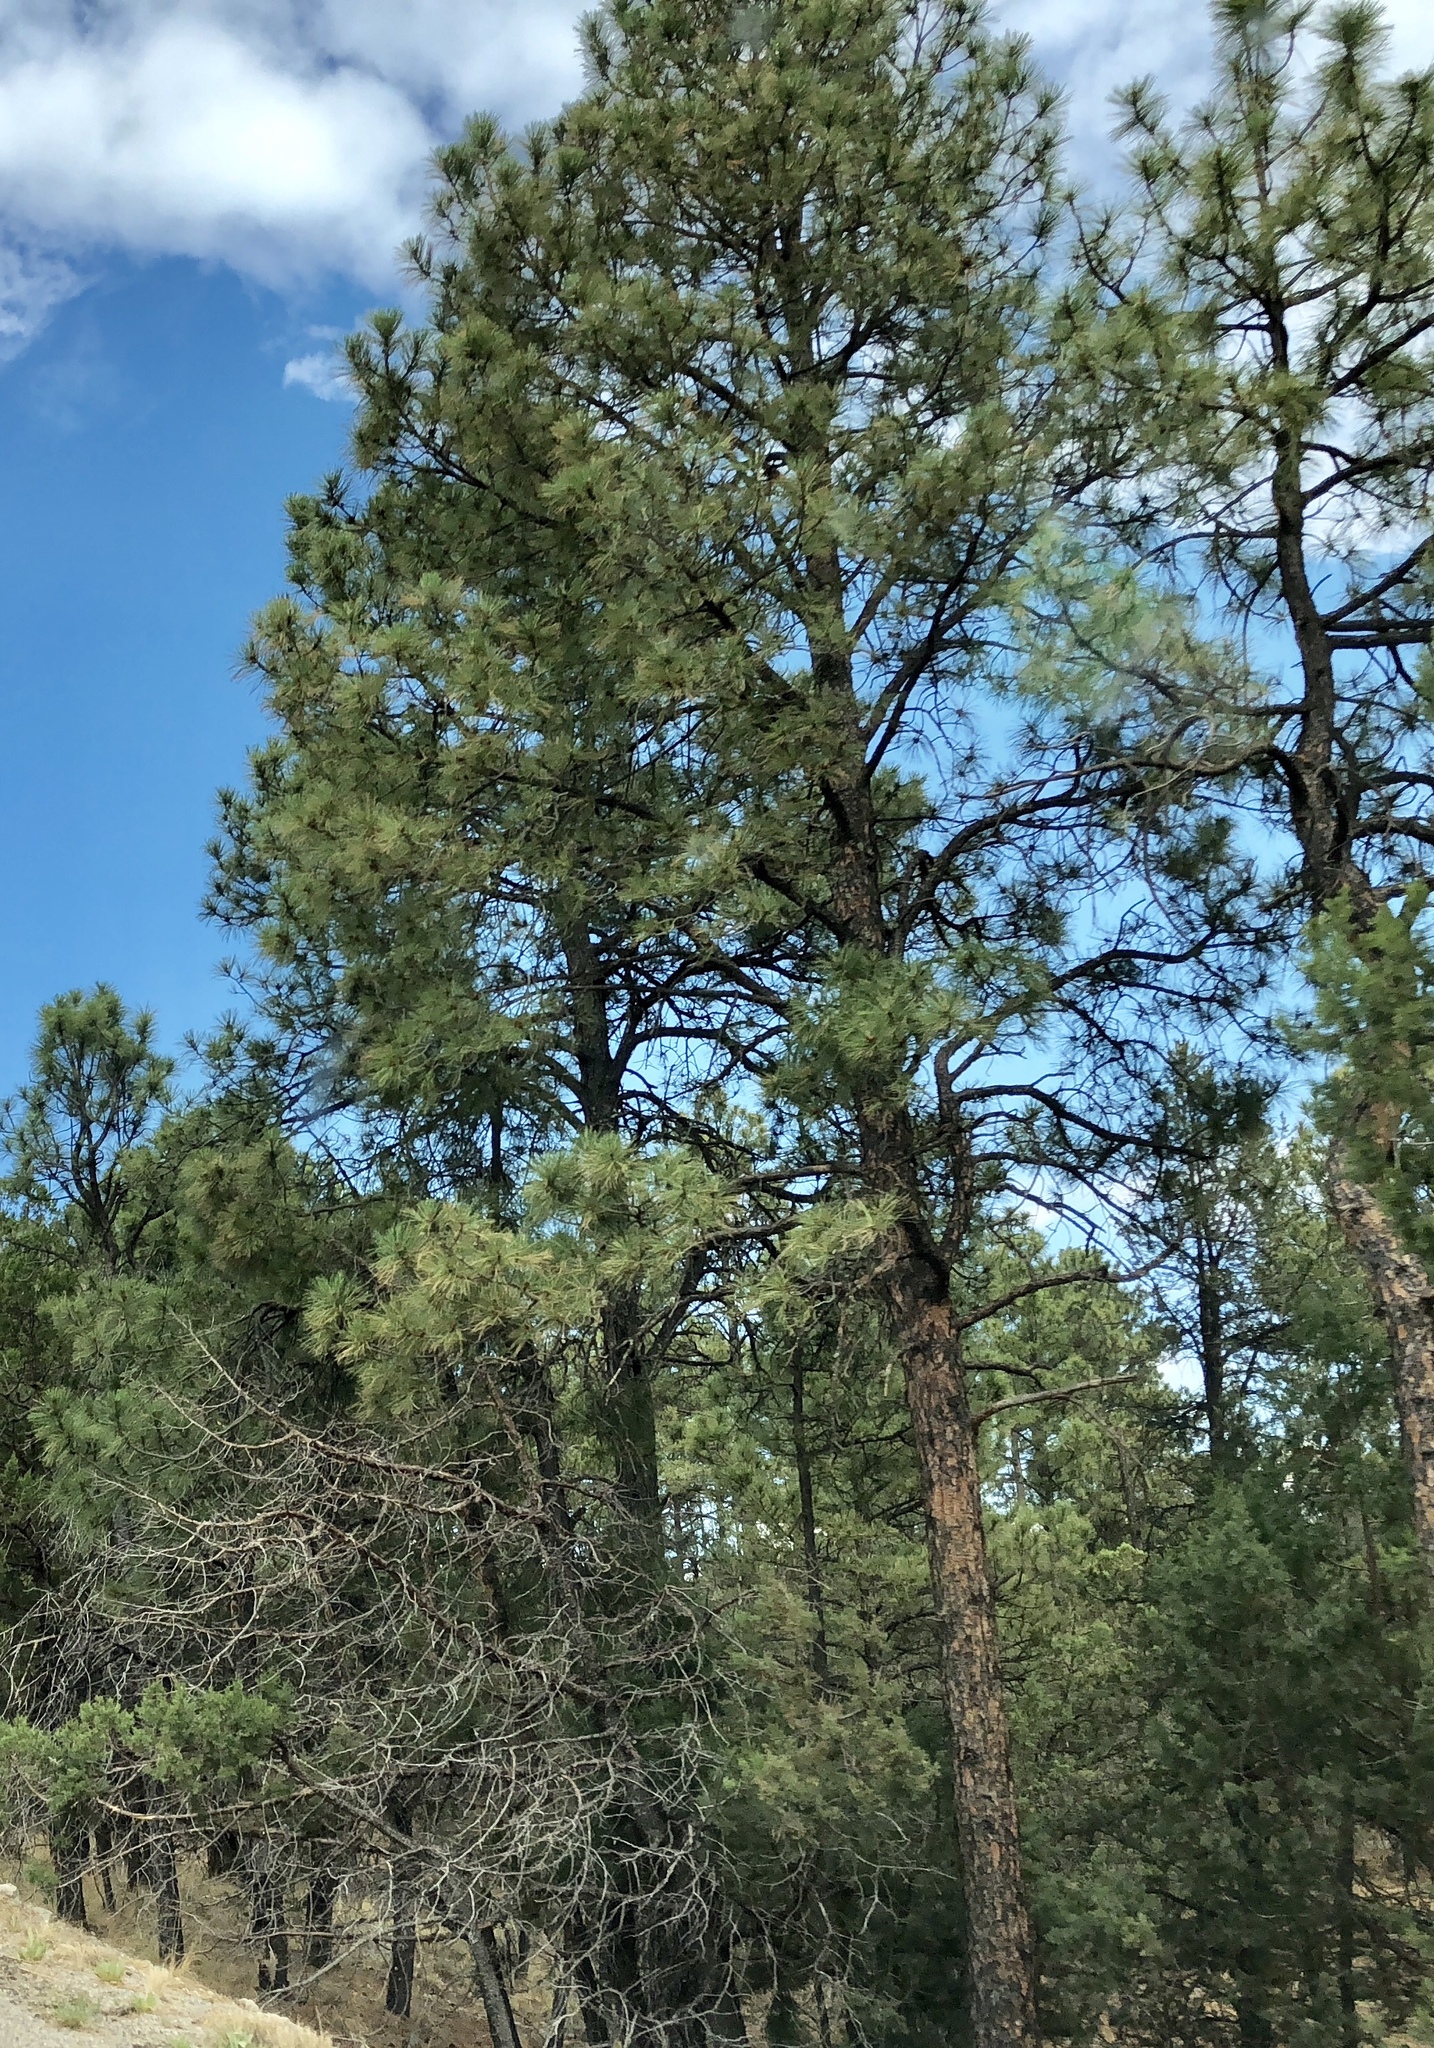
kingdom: Plantae
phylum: Tracheophyta
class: Pinopsida
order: Pinales
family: Pinaceae
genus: Pinus
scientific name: Pinus ponderosa
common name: Western yellow-pine
